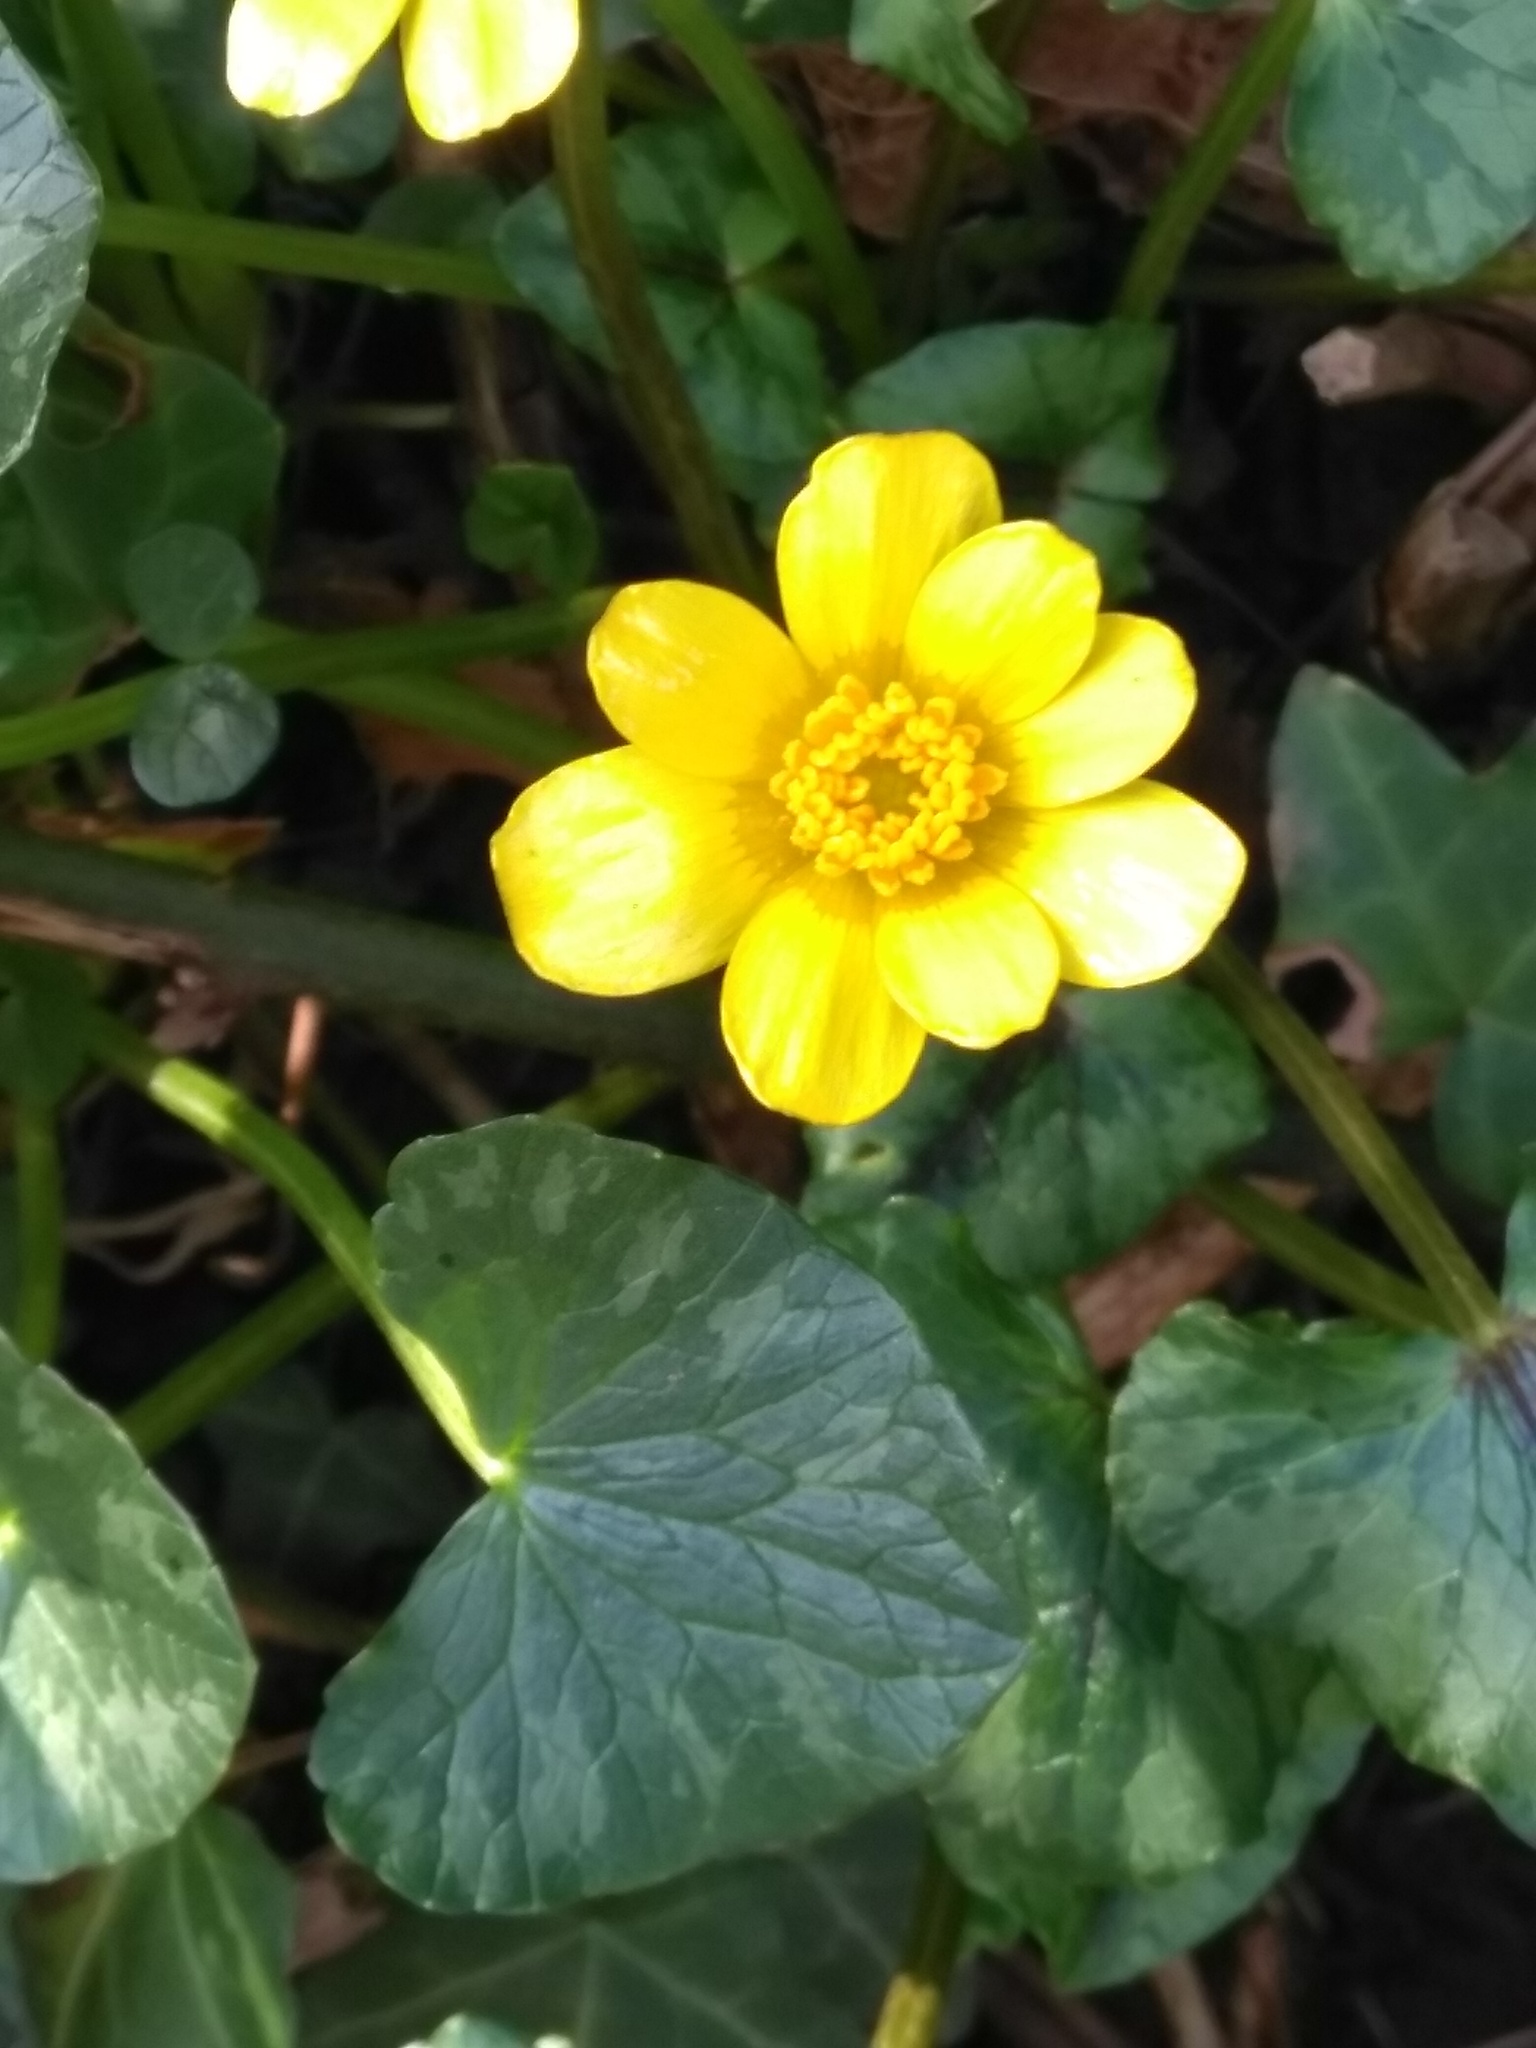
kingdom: Plantae
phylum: Tracheophyta
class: Magnoliopsida
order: Ranunculales
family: Ranunculaceae
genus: Ficaria
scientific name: Ficaria verna
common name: Lesser celandine
